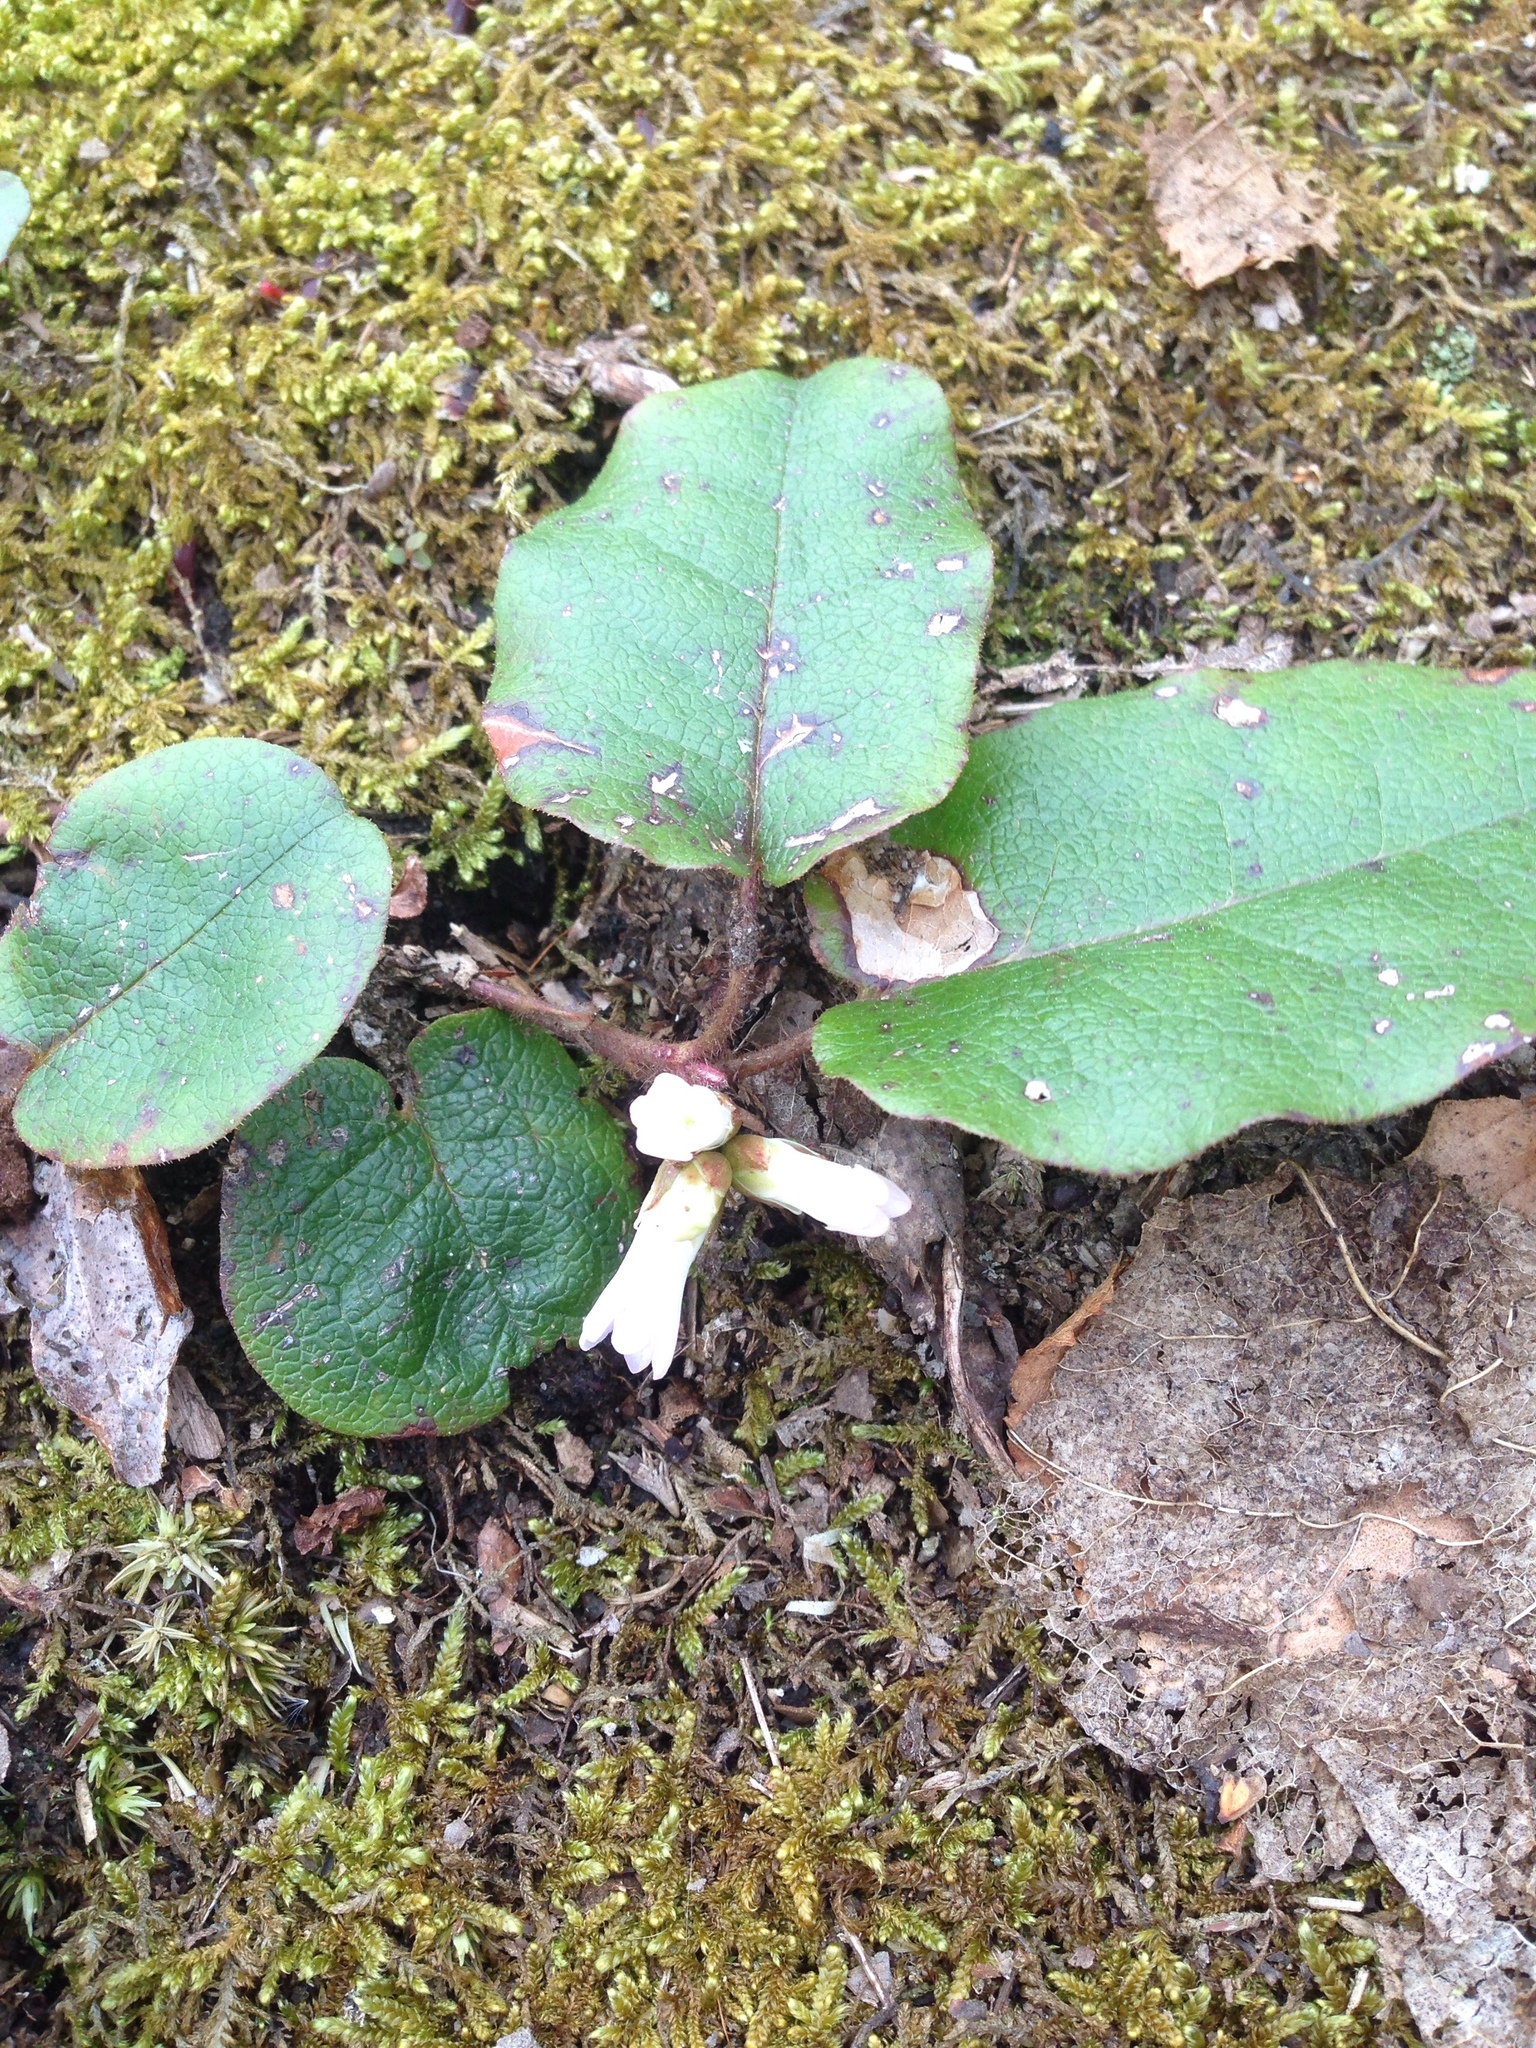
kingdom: Plantae
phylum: Tracheophyta
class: Magnoliopsida
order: Ericales
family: Ericaceae
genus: Epigaea
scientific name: Epigaea repens
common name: Gravelroot
